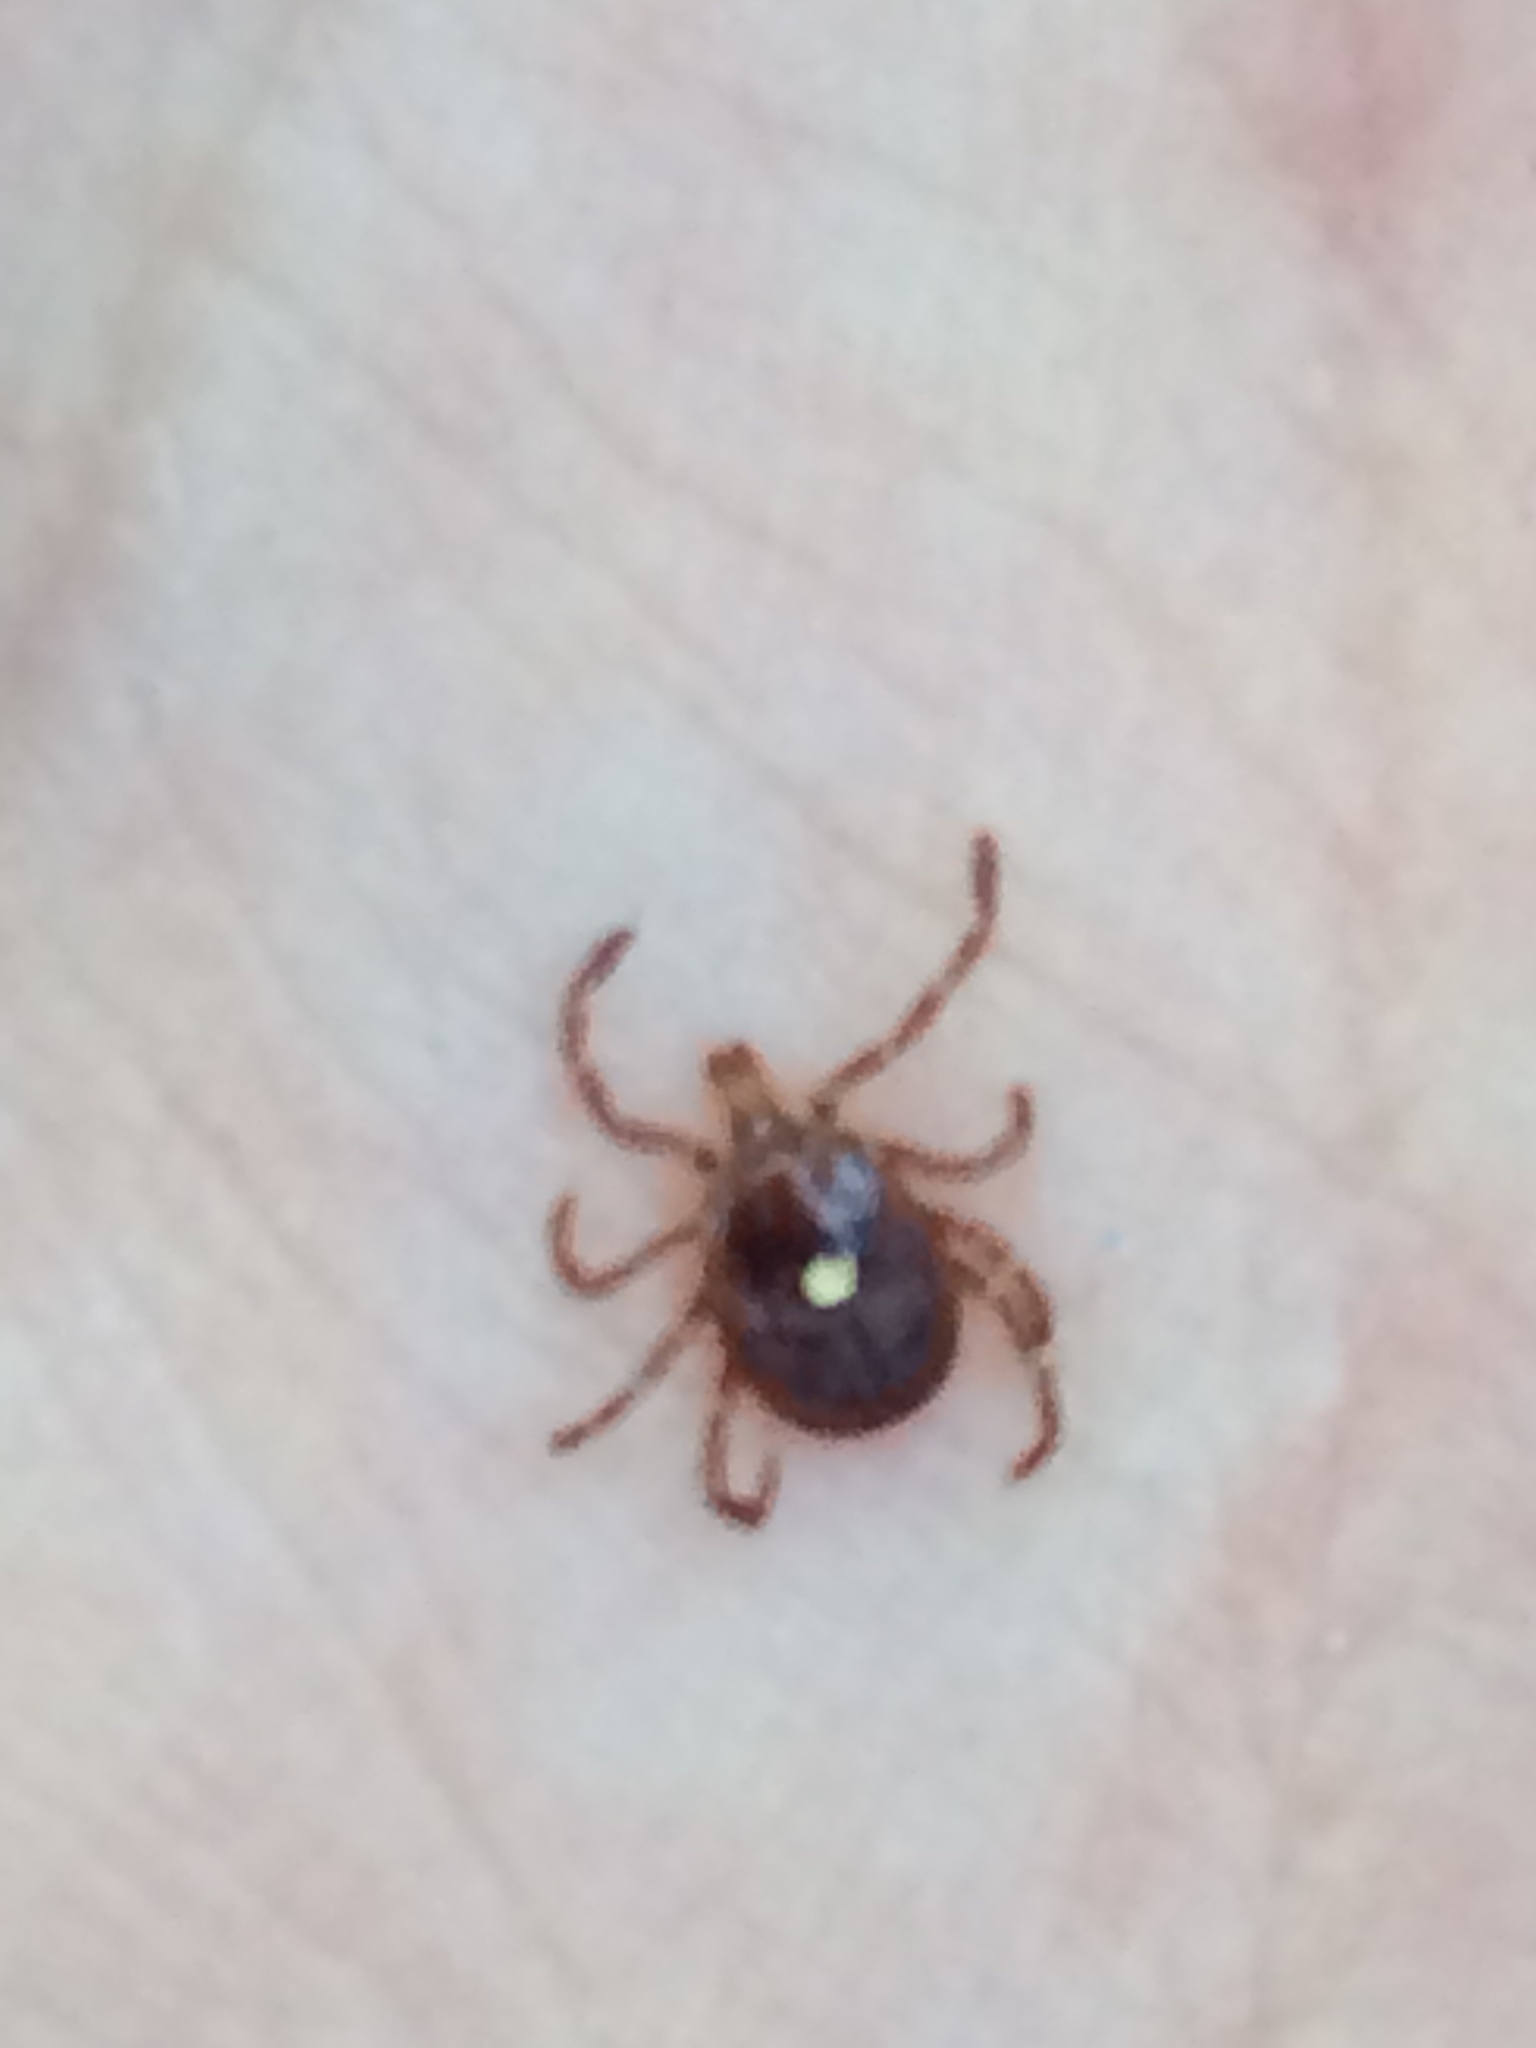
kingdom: Animalia
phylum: Arthropoda
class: Arachnida
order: Ixodida
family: Ixodidae
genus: Amblyomma
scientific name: Amblyomma americanum
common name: Lone star tick
